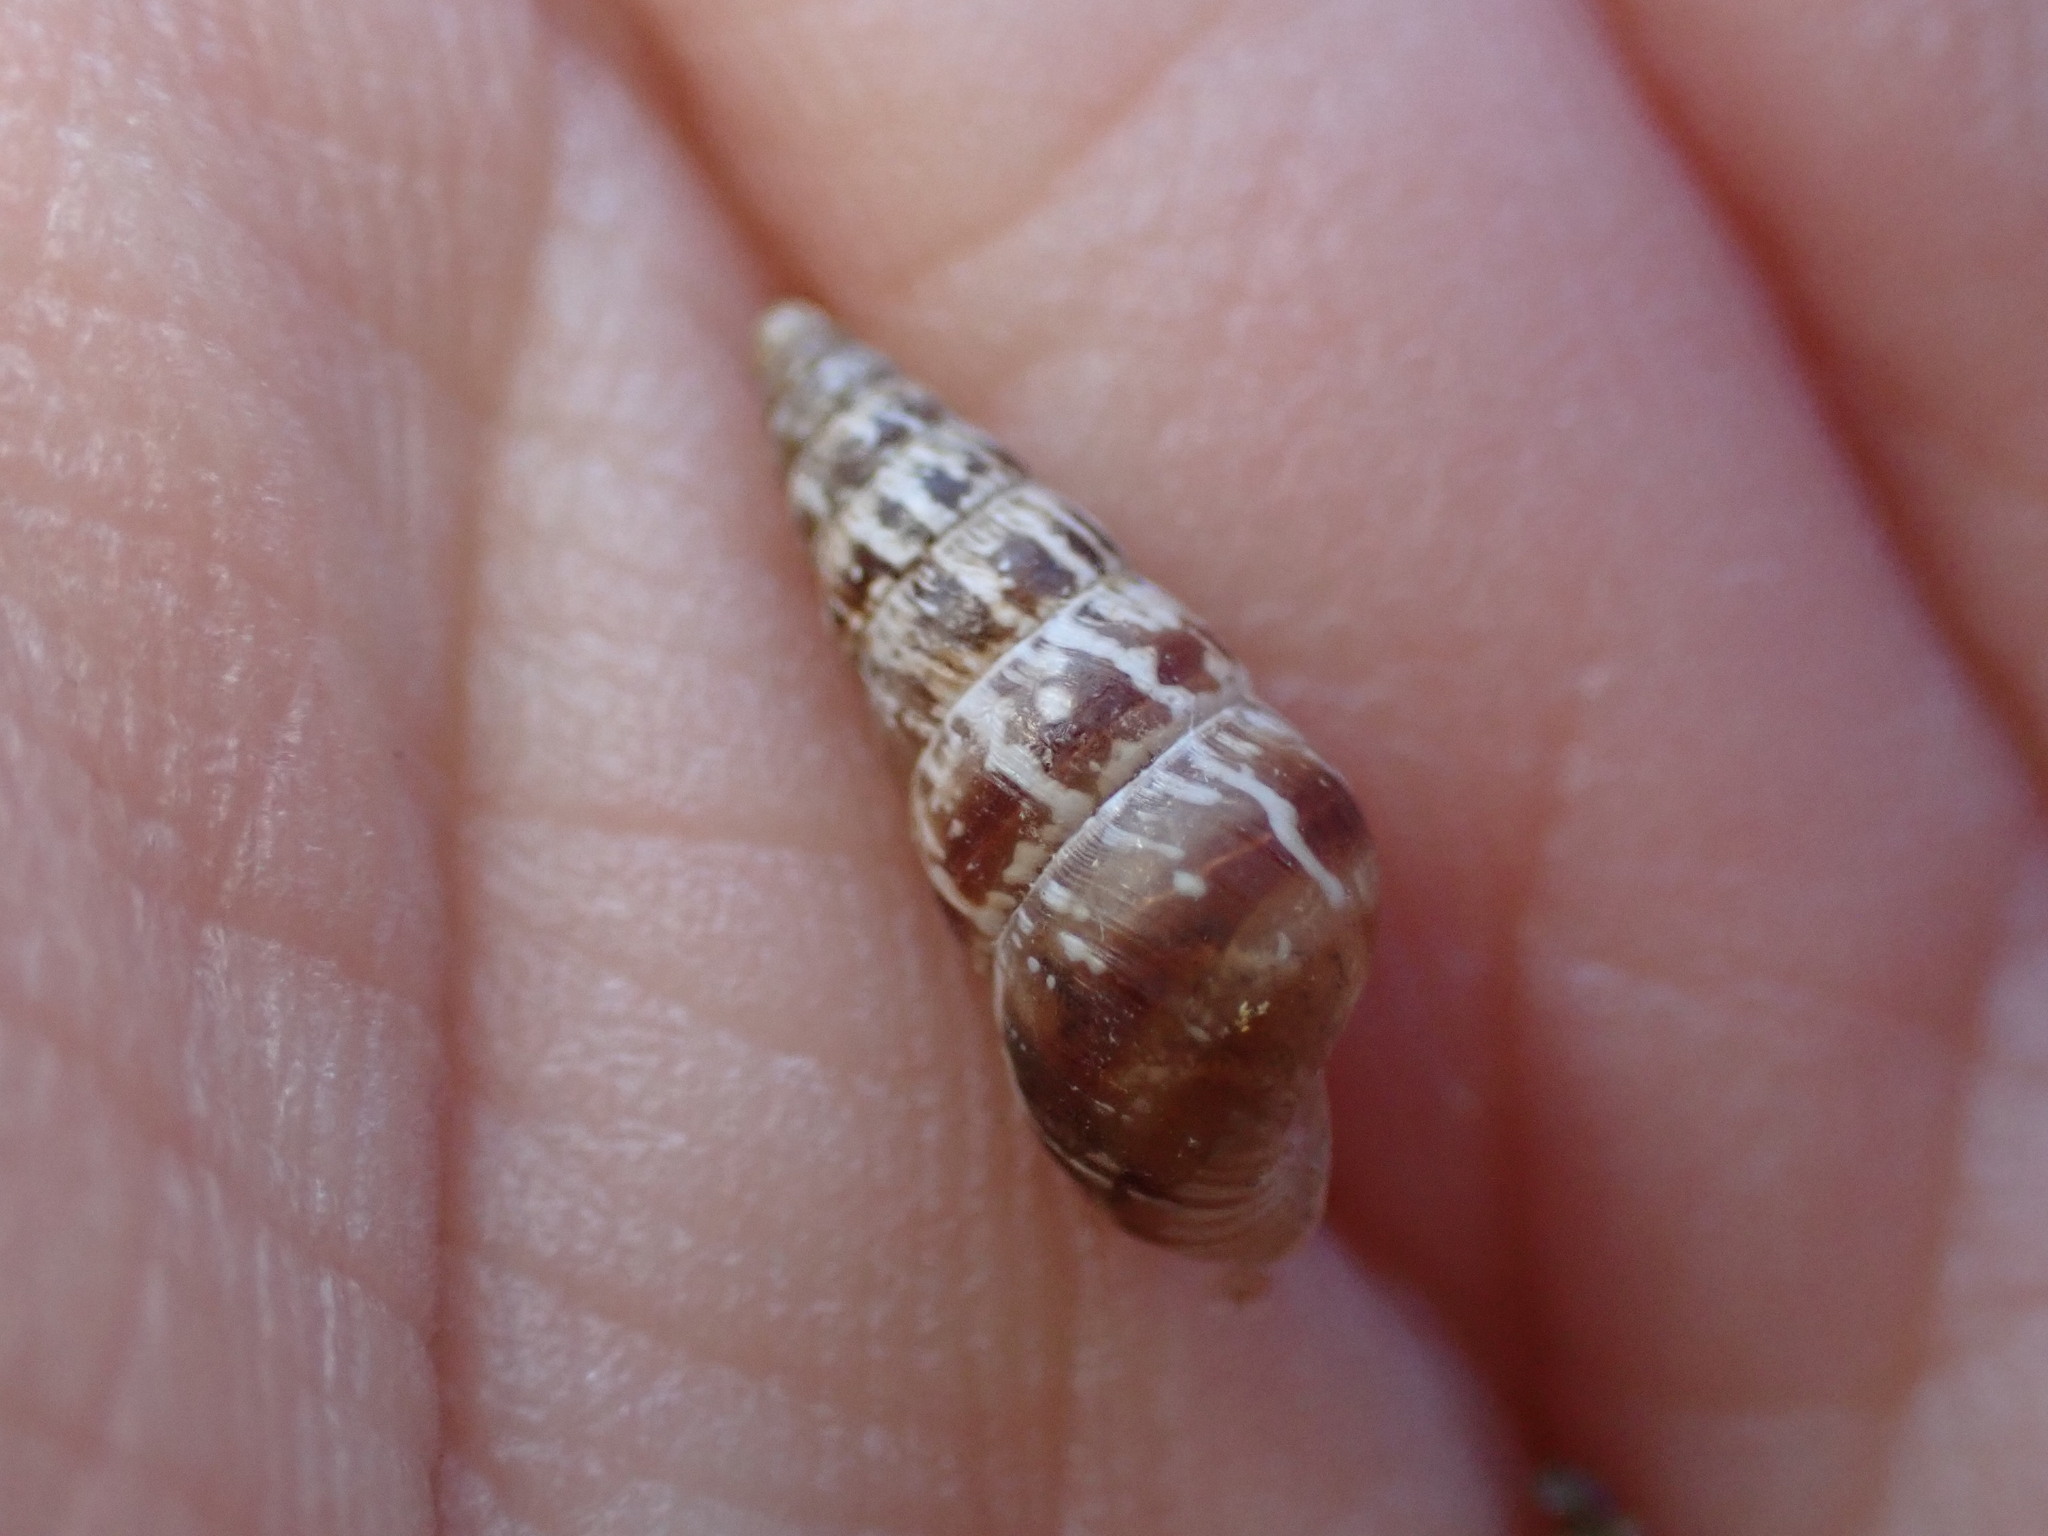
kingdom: Animalia
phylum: Mollusca
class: Gastropoda
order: Stylommatophora
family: Geomitridae
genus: Cochlicella
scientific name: Cochlicella acuta
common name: Pointed snail
